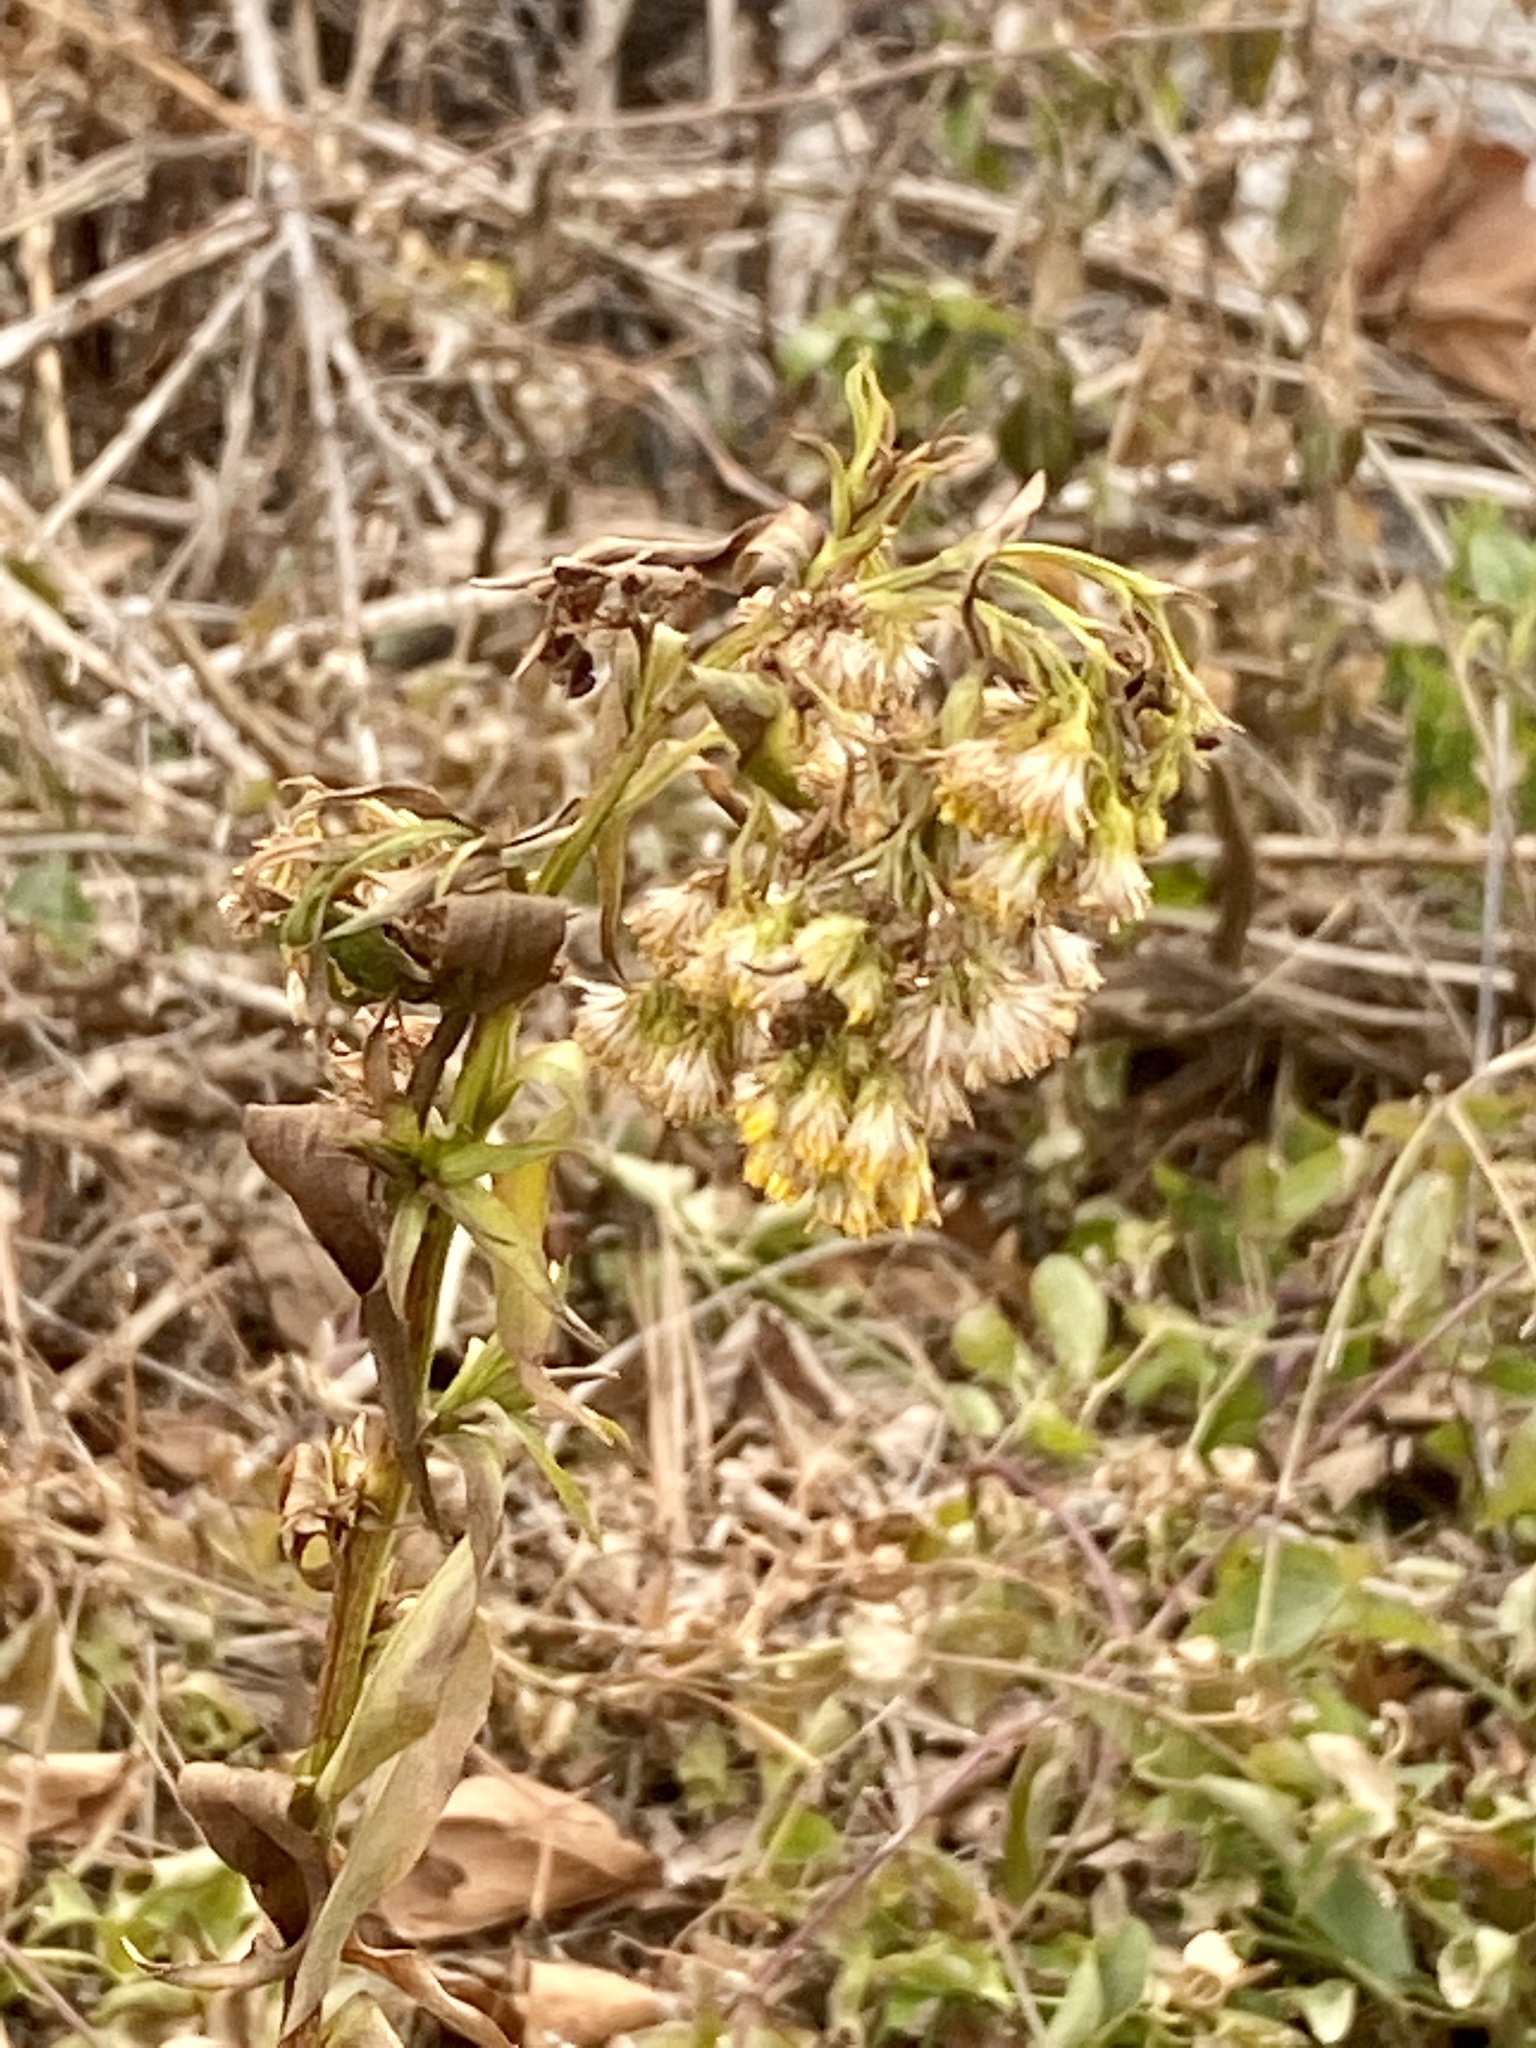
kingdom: Plantae
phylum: Tracheophyta
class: Magnoliopsida
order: Asterales
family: Asteraceae
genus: Solidago
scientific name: Solidago sempervirens
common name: Salt-marsh goldenrod
